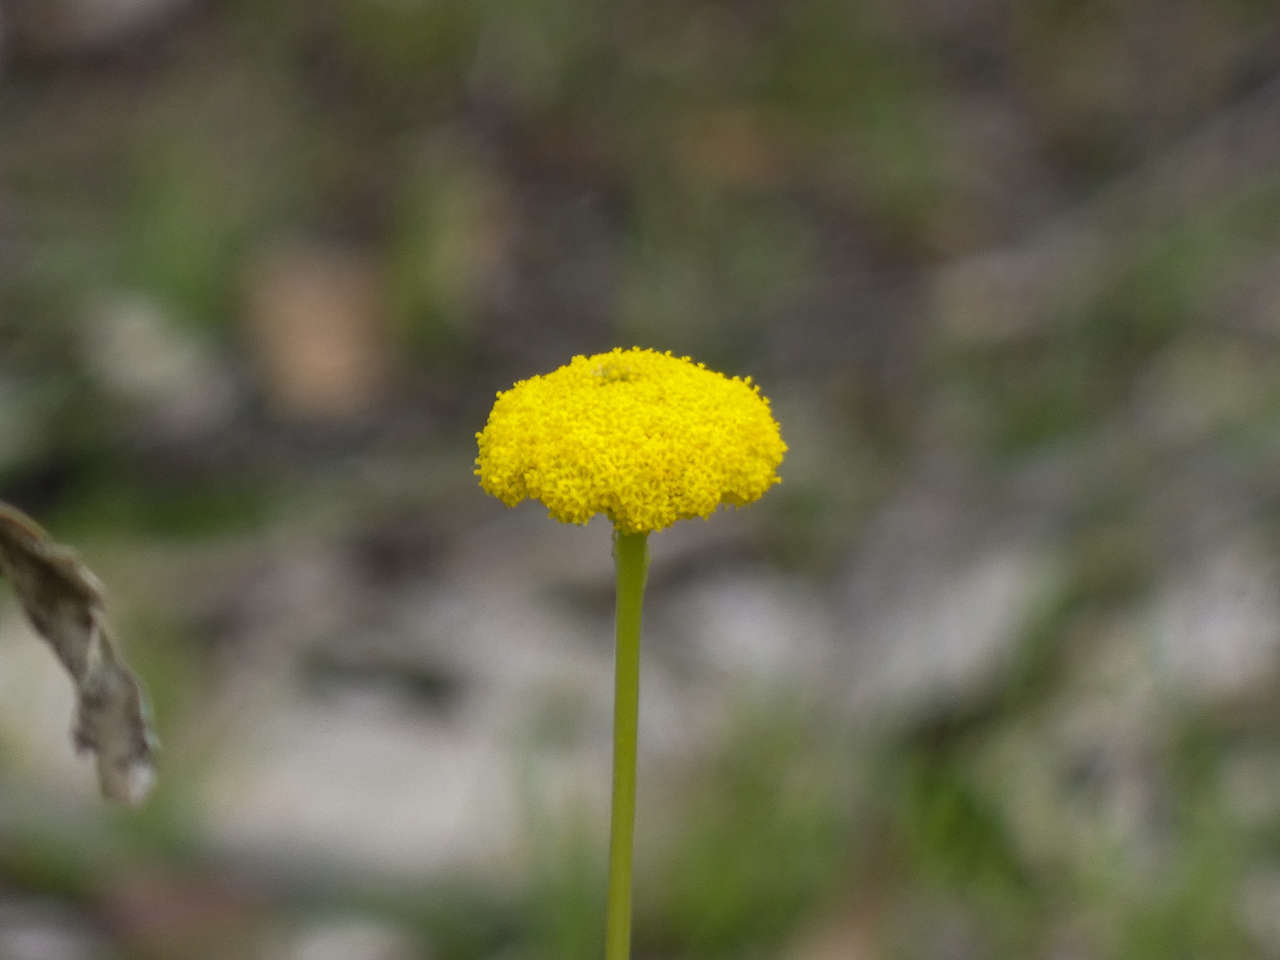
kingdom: Plantae
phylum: Tracheophyta
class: Magnoliopsida
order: Asterales
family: Asteraceae
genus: Craspedia
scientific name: Craspedia variabilis
